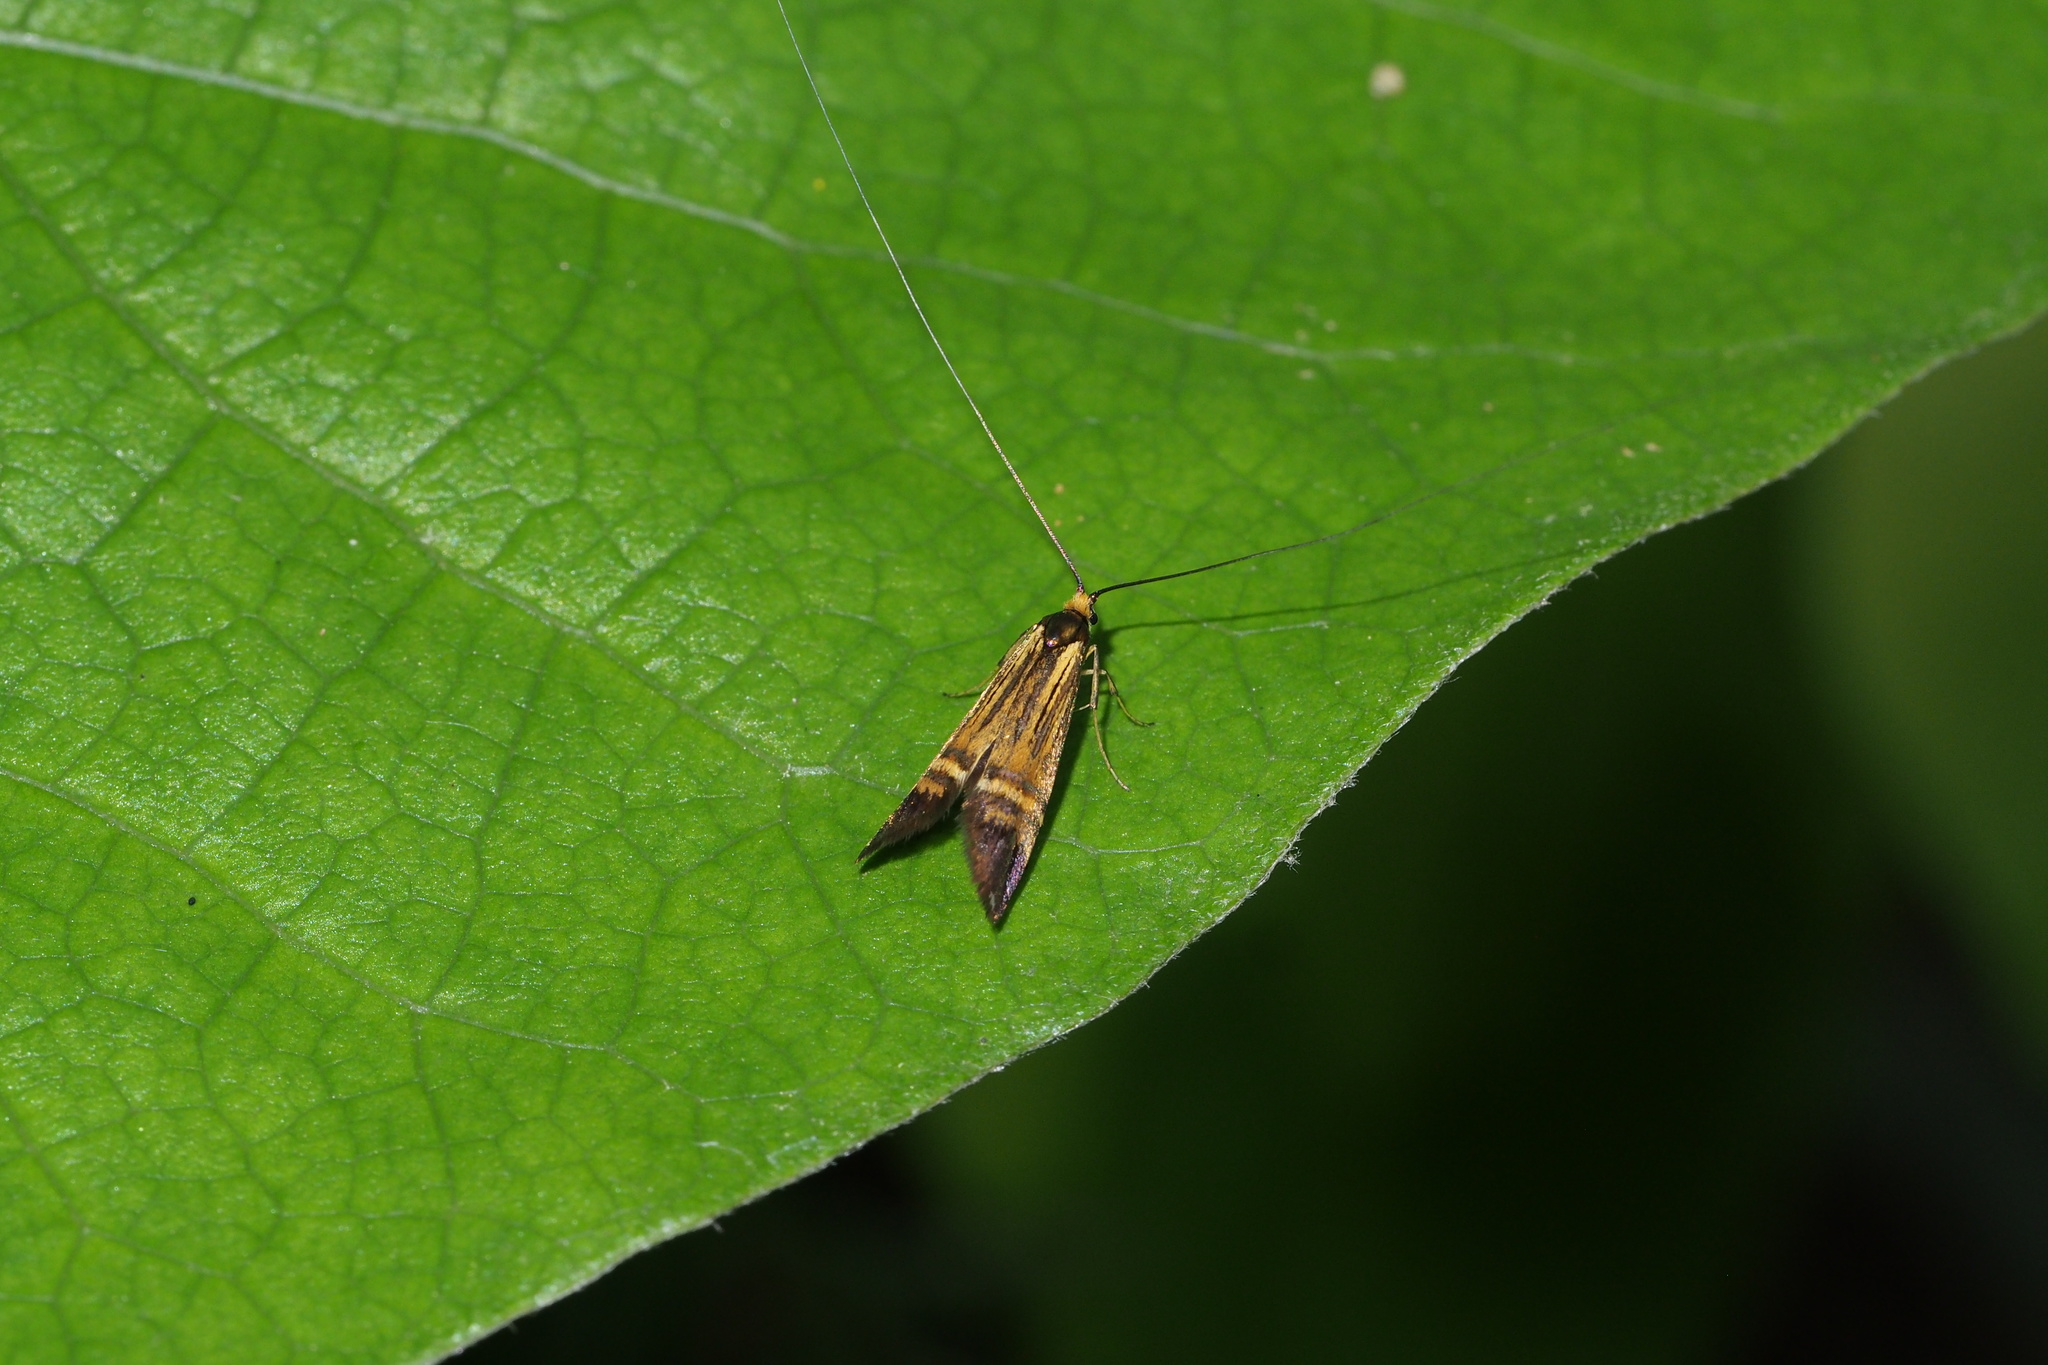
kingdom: Animalia
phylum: Arthropoda
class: Insecta
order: Lepidoptera
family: Adelidae
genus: Nemophora
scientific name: Nemophora staudingerella
